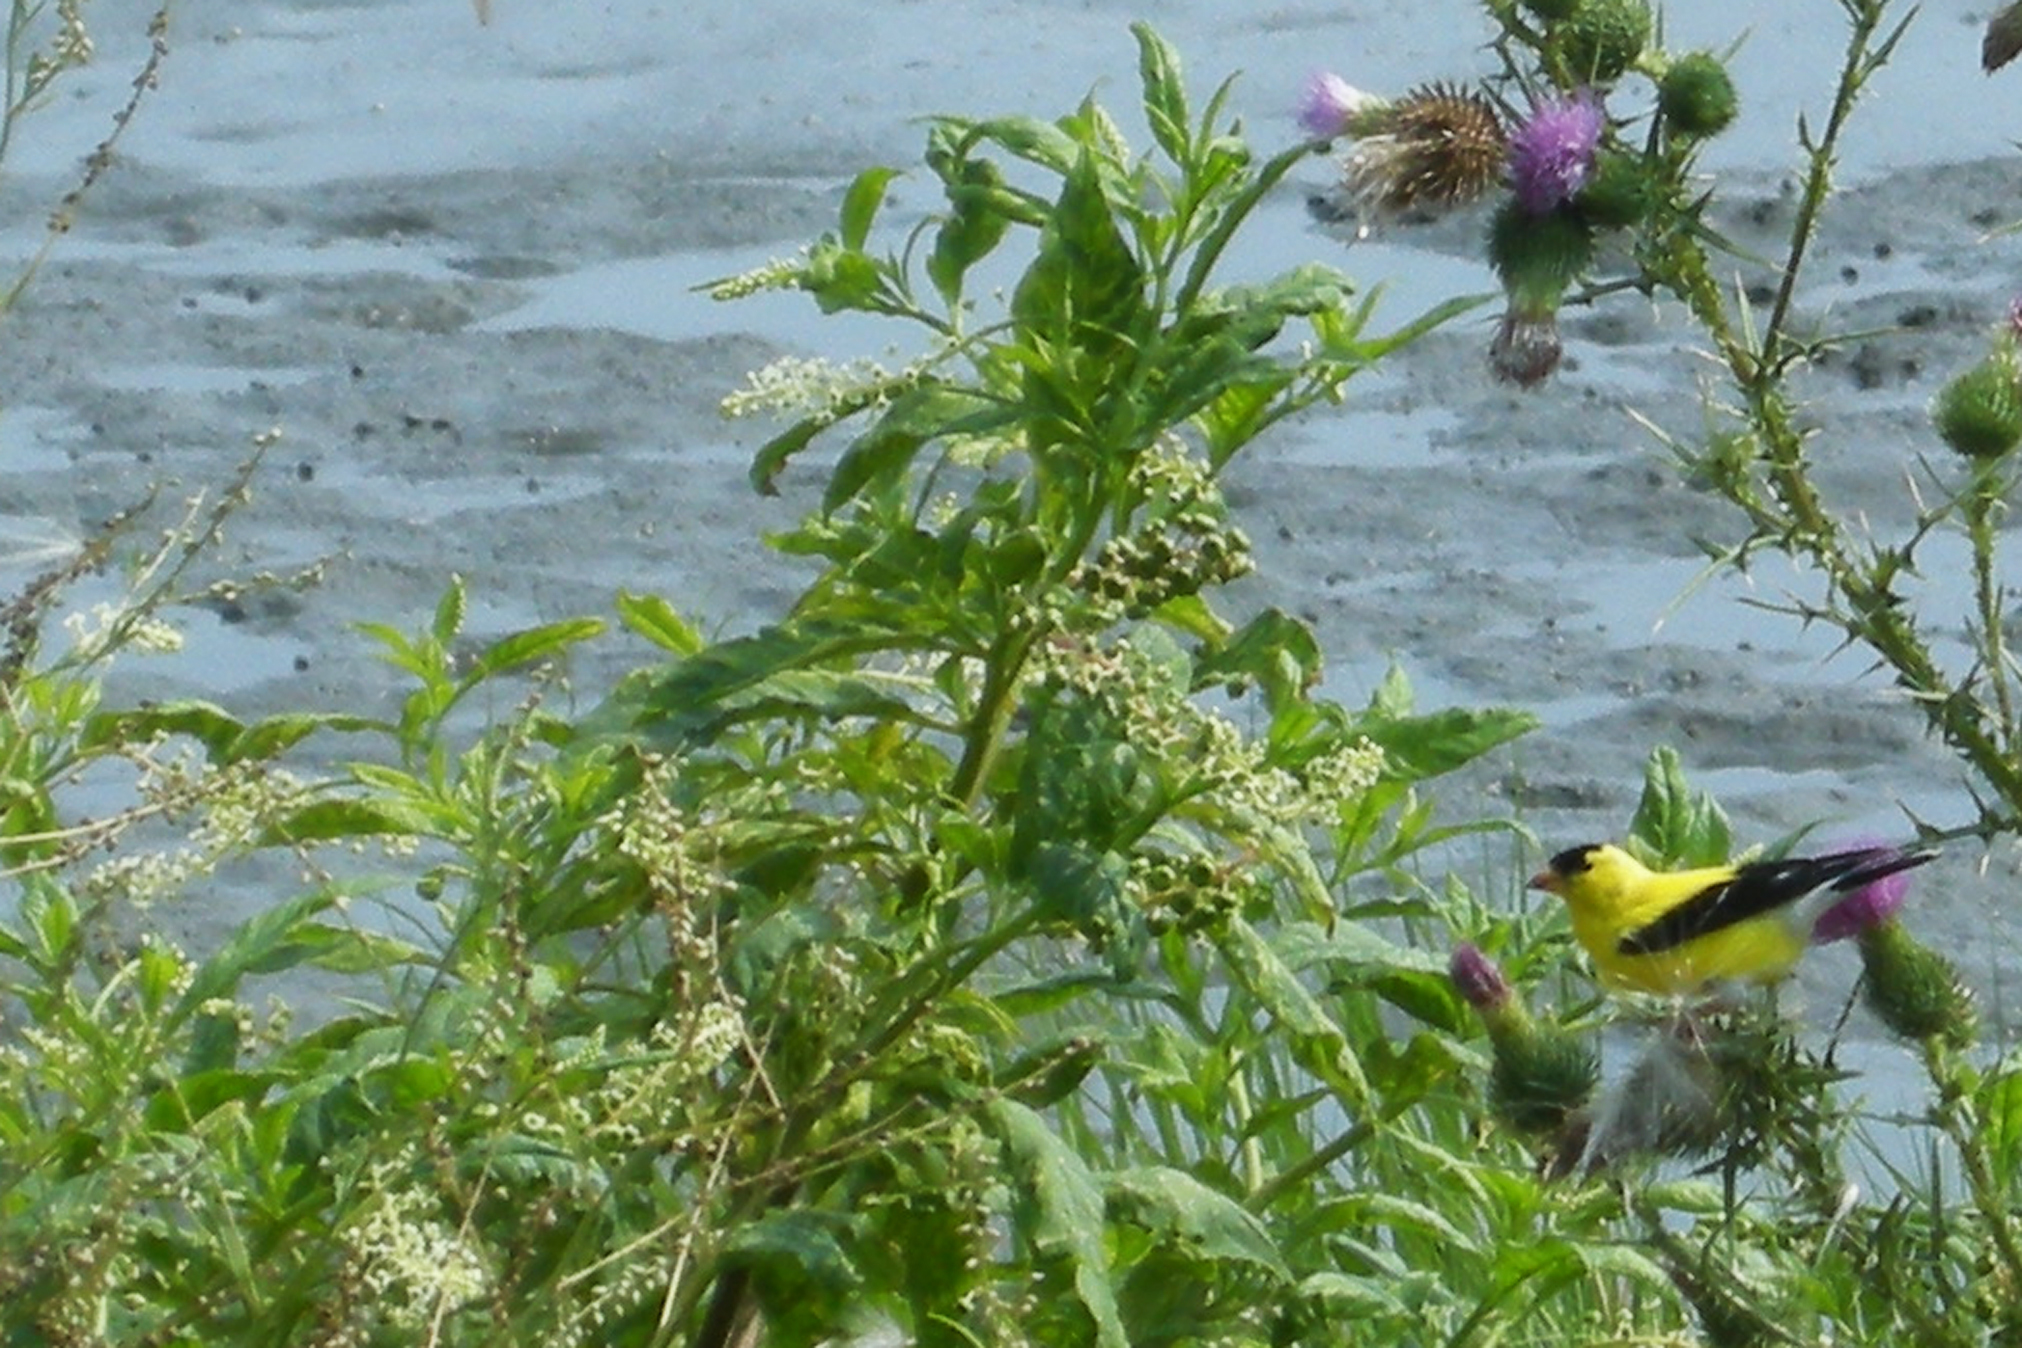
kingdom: Plantae
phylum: Tracheophyta
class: Magnoliopsida
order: Caryophyllales
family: Phytolaccaceae
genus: Phytolacca
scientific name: Phytolacca americana
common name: American pokeweed
